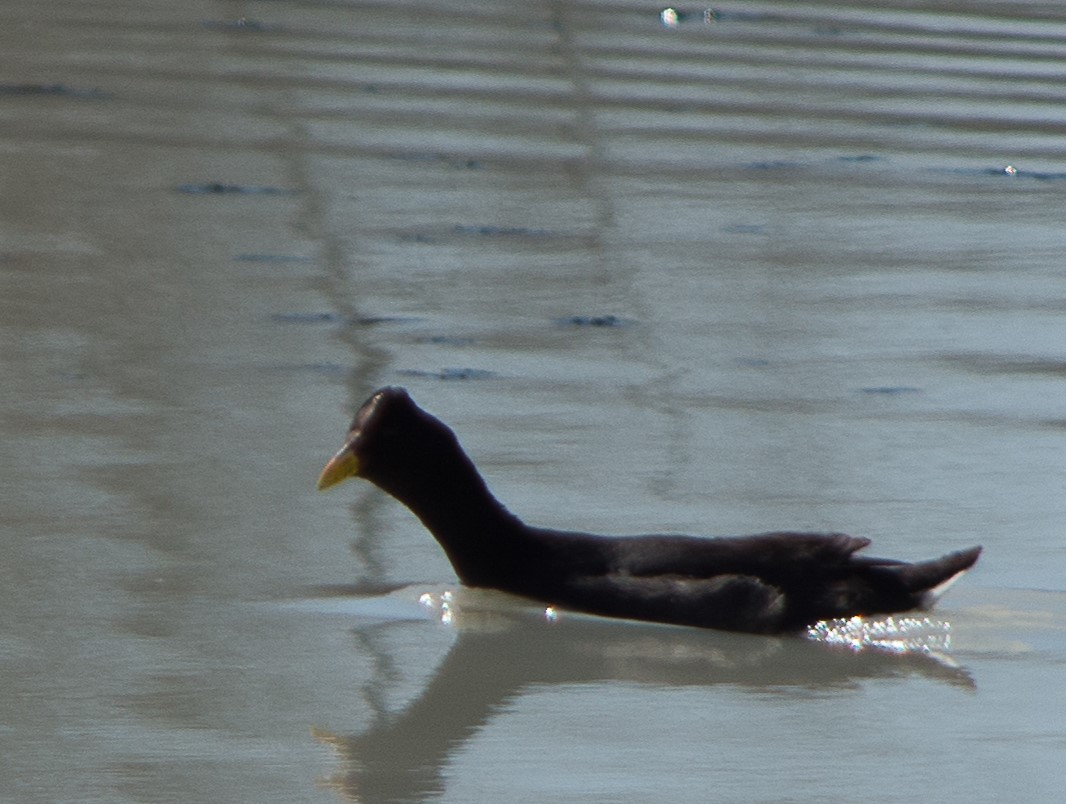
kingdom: Animalia
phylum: Chordata
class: Aves
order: Gruiformes
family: Rallidae
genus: Fulica
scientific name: Fulica rufifrons
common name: Red-fronted coot
